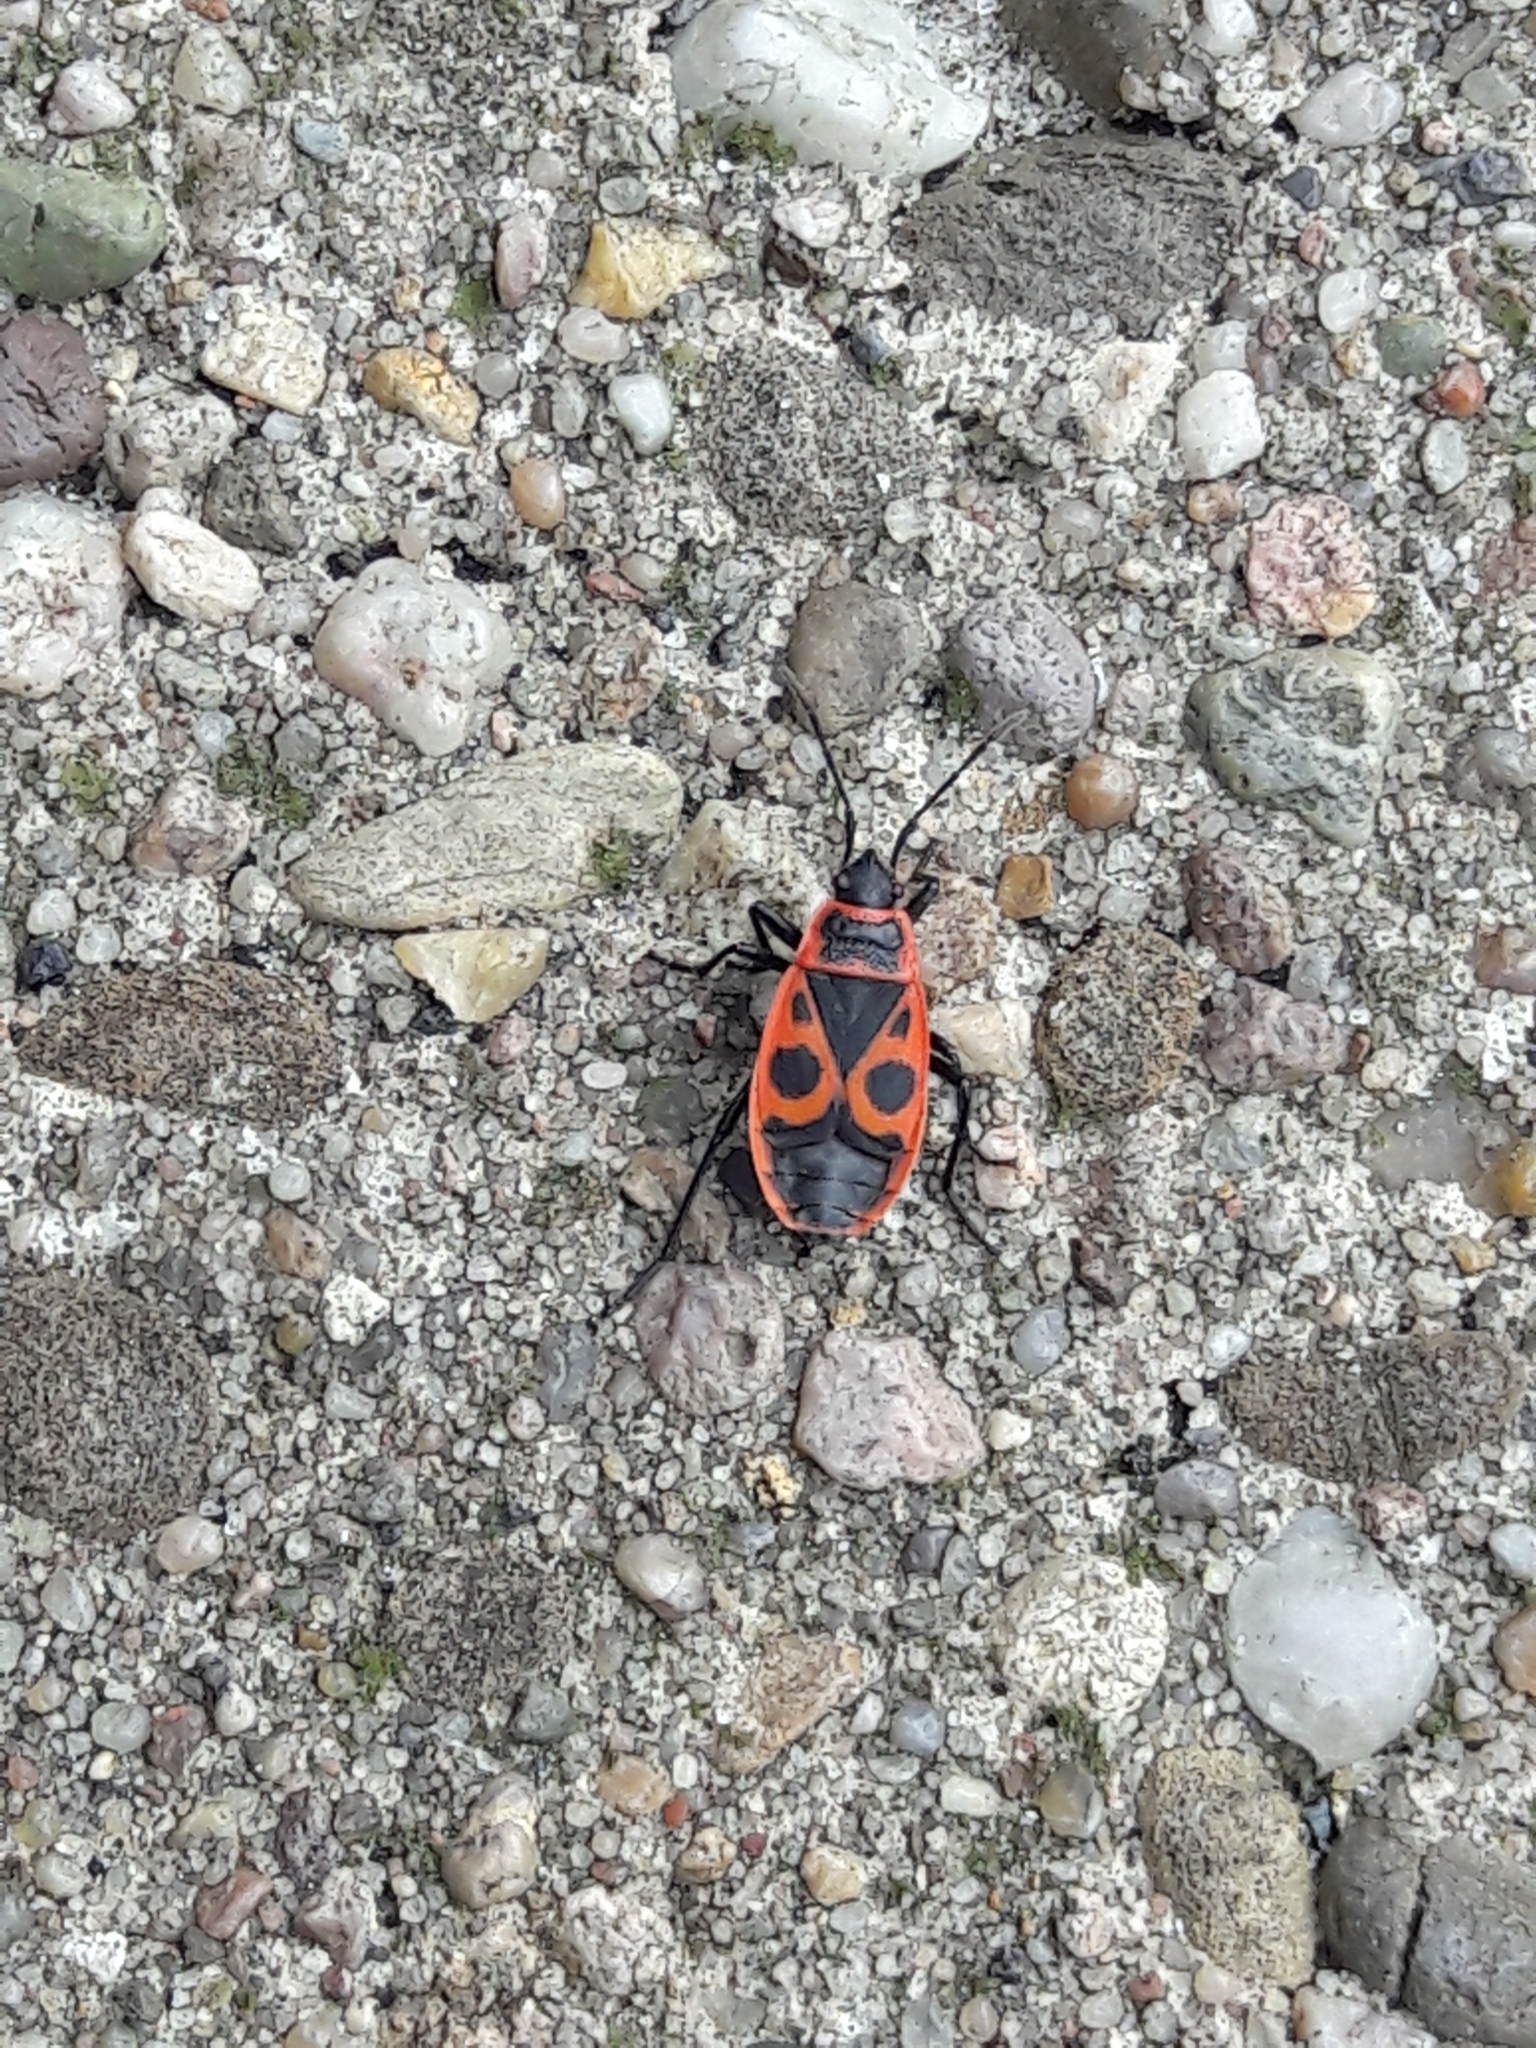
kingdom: Animalia
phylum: Arthropoda
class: Insecta
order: Hemiptera
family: Pyrrhocoridae
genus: Pyrrhocoris
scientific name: Pyrrhocoris apterus
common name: Firebug
